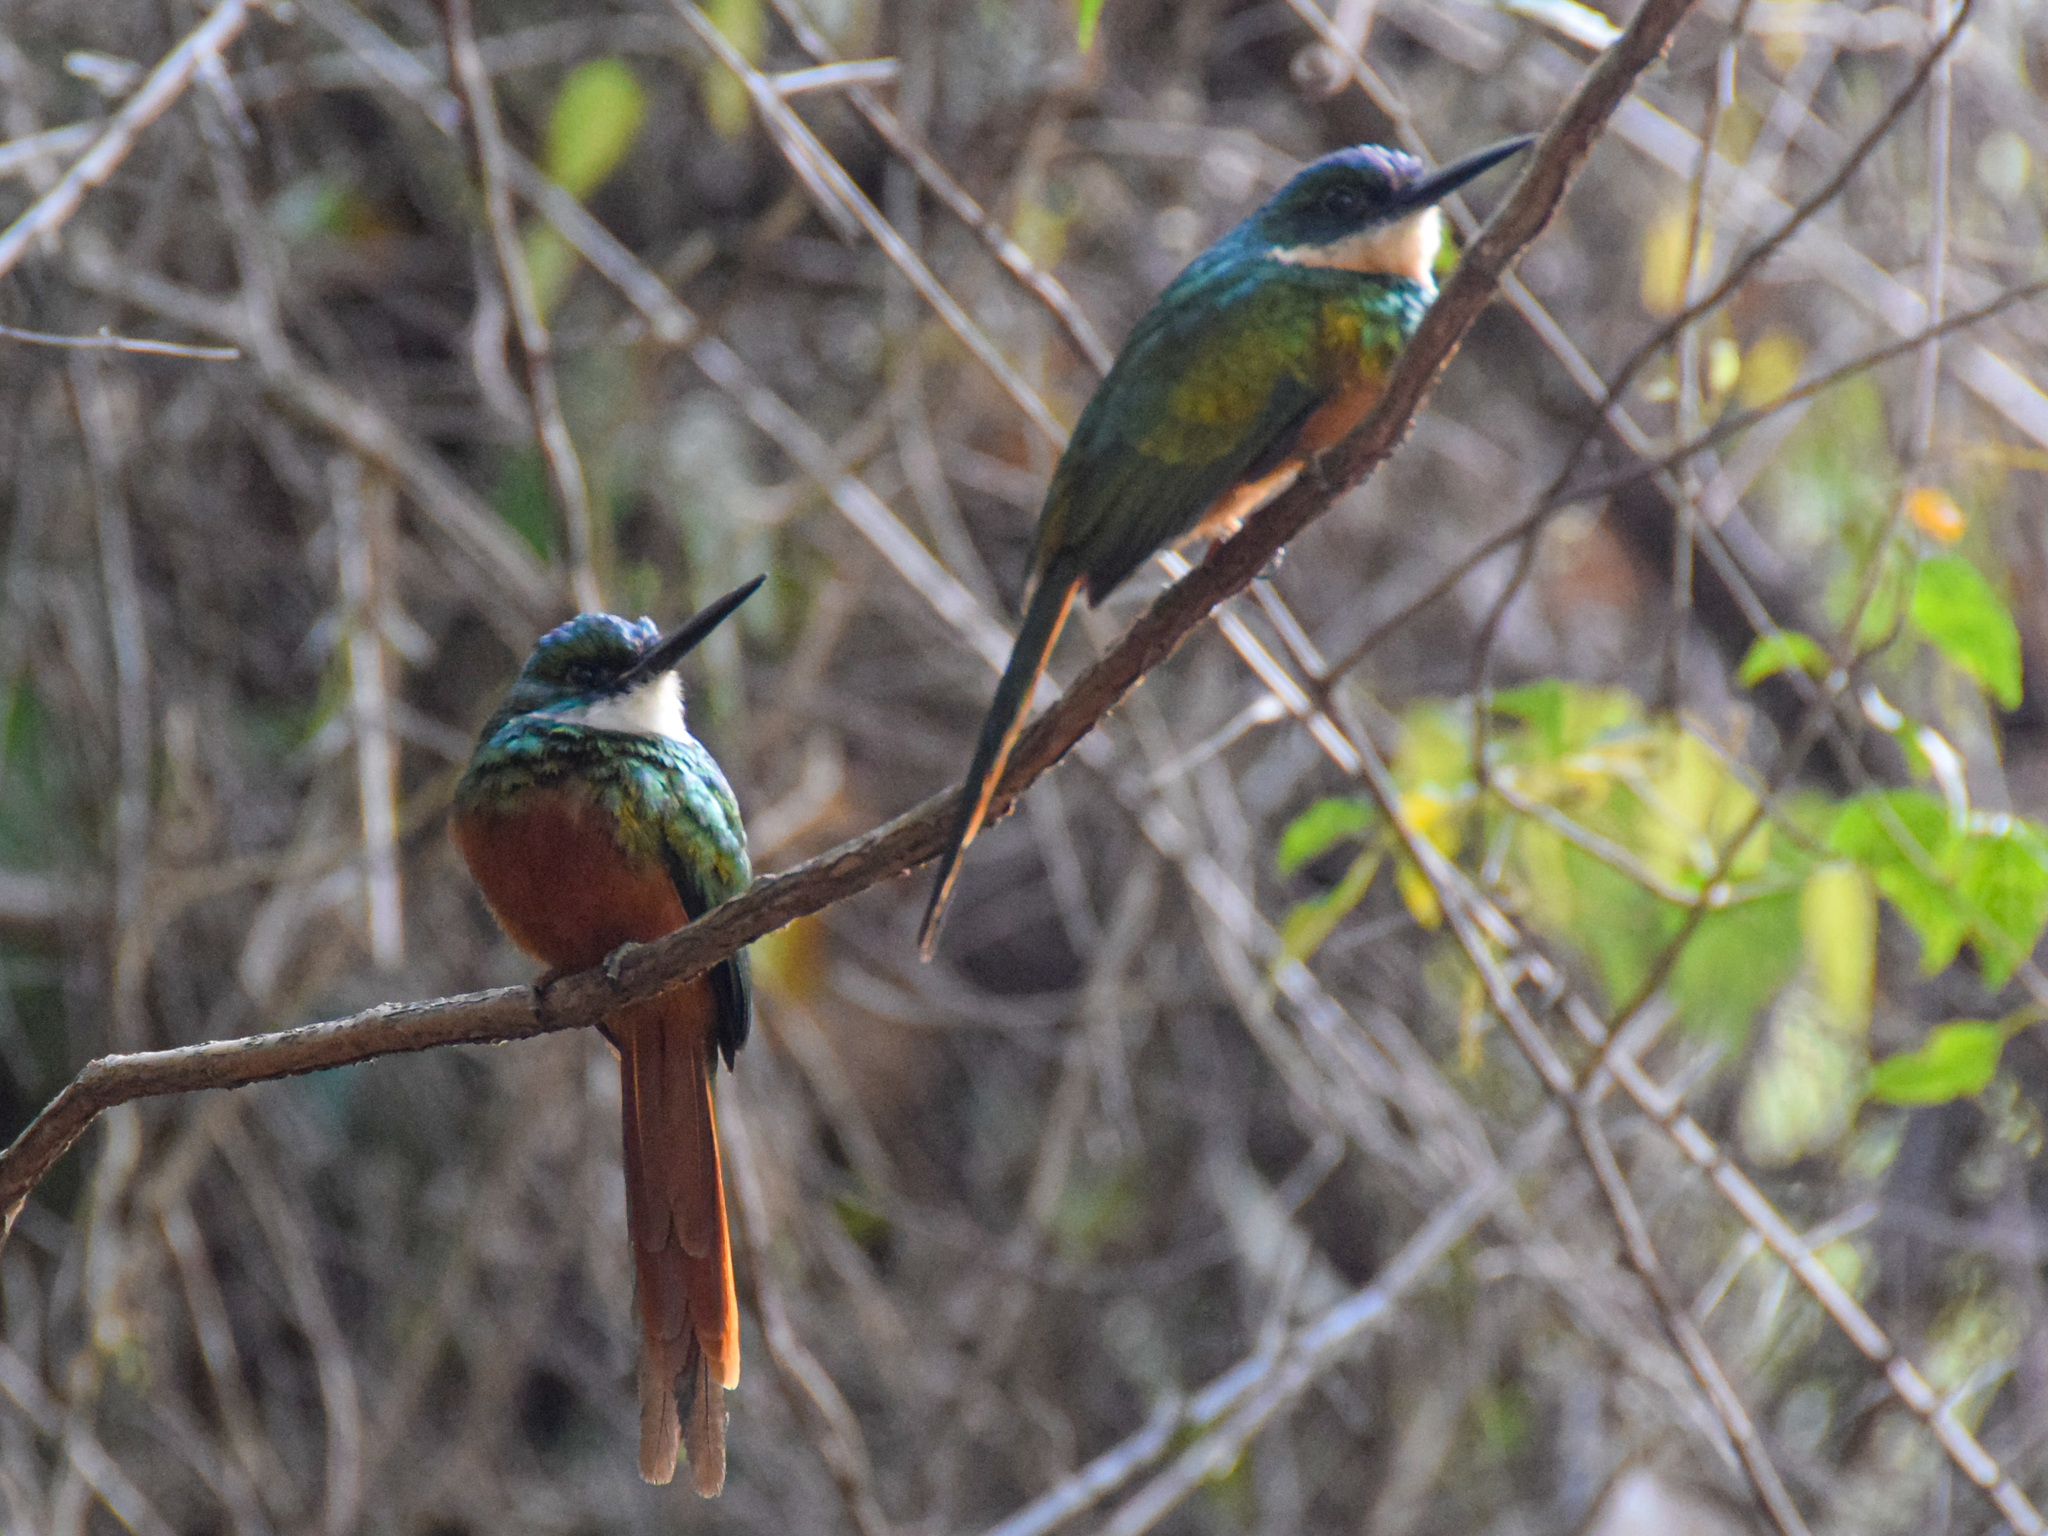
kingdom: Animalia
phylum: Chordata
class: Aves
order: Piciformes
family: Galbulidae
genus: Galbula
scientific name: Galbula ruficauda
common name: Rufous-tailed jacamar
